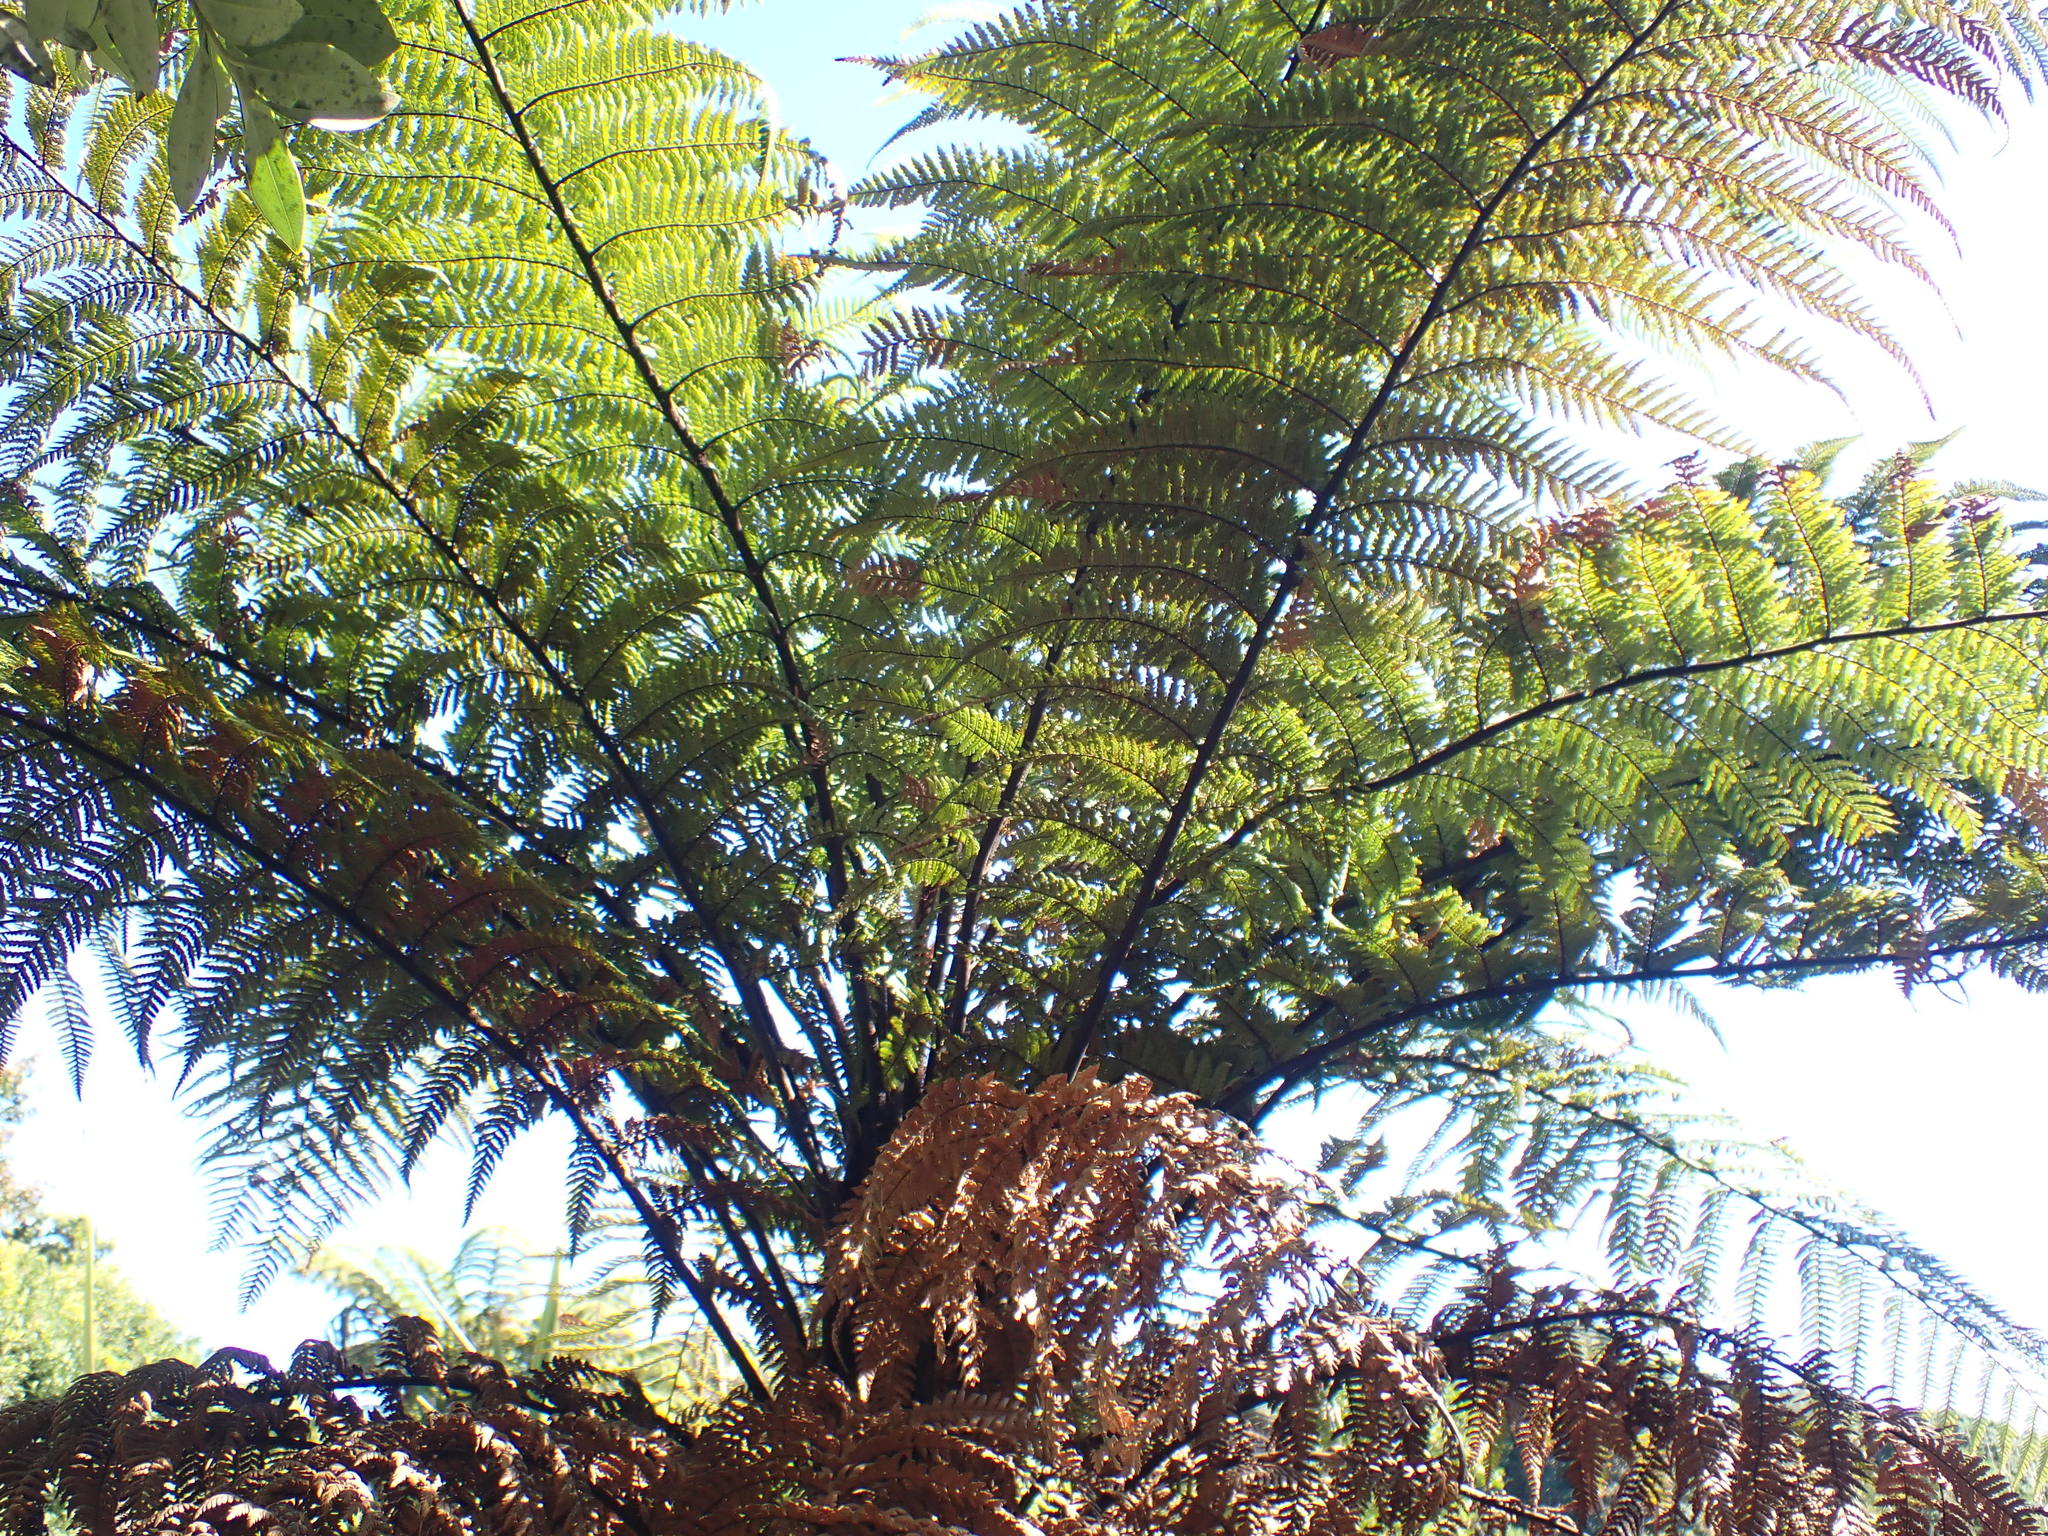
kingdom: Plantae
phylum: Tracheophyta
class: Polypodiopsida
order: Cyatheales
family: Dicksoniaceae
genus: Dicksonia
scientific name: Dicksonia squarrosa
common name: Hard treefern
